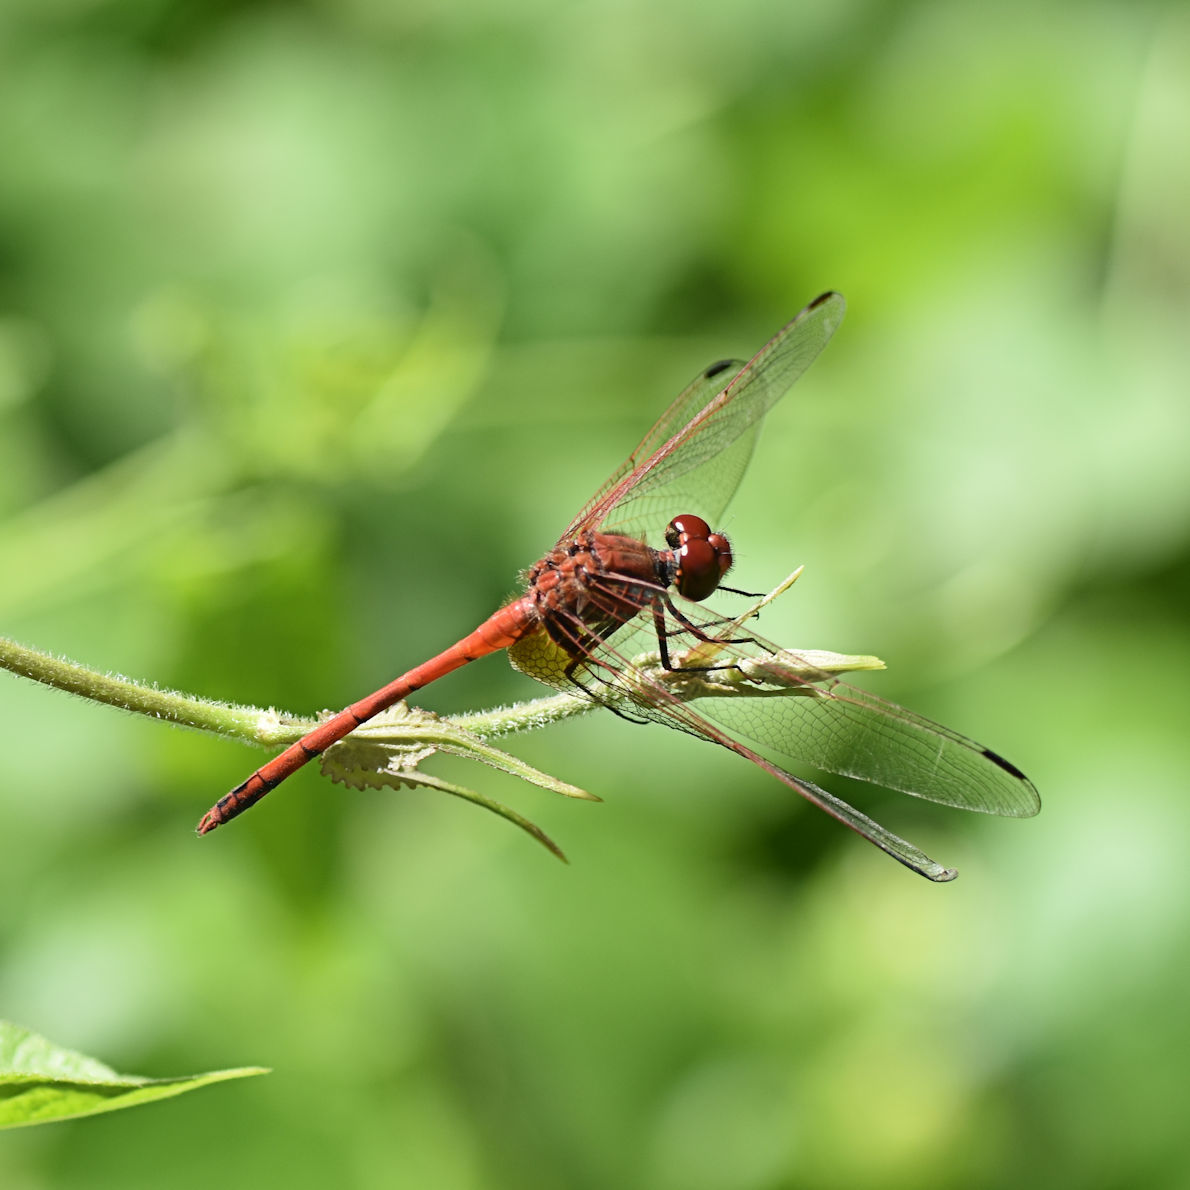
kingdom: Animalia
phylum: Arthropoda
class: Insecta
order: Odonata
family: Libellulidae
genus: Dythemis
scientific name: Dythemis rufinervis
